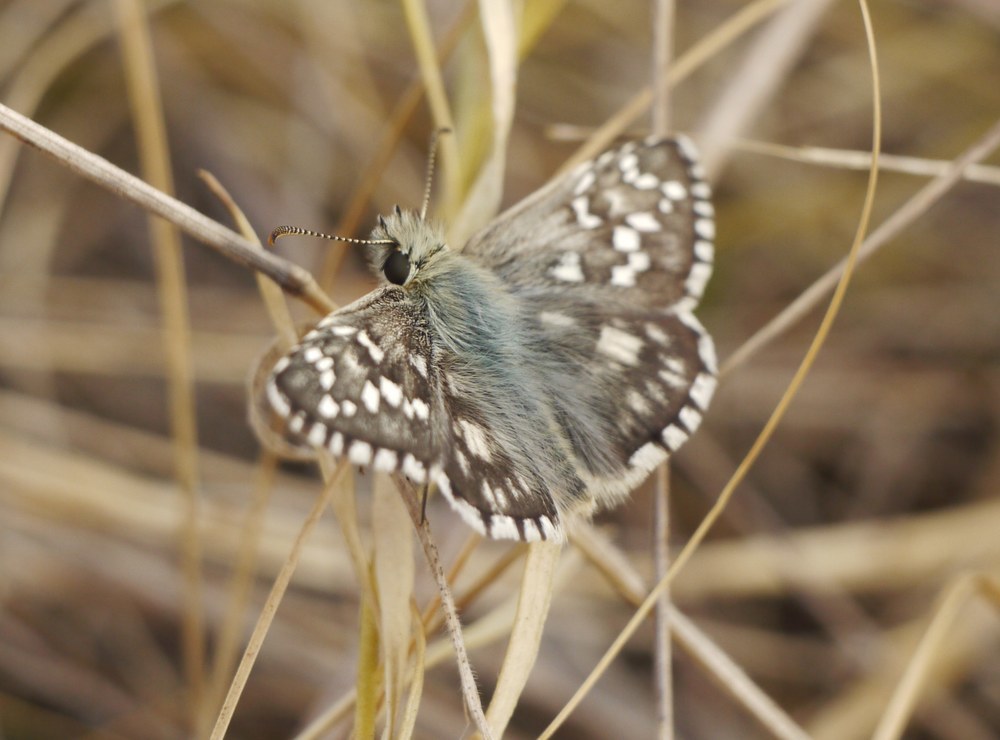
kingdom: Animalia
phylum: Arthropoda
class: Insecta
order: Lepidoptera
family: Hesperiidae
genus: Pyrgus
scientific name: Pyrgus armoricanus
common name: Oberthür's grizzled skipper
